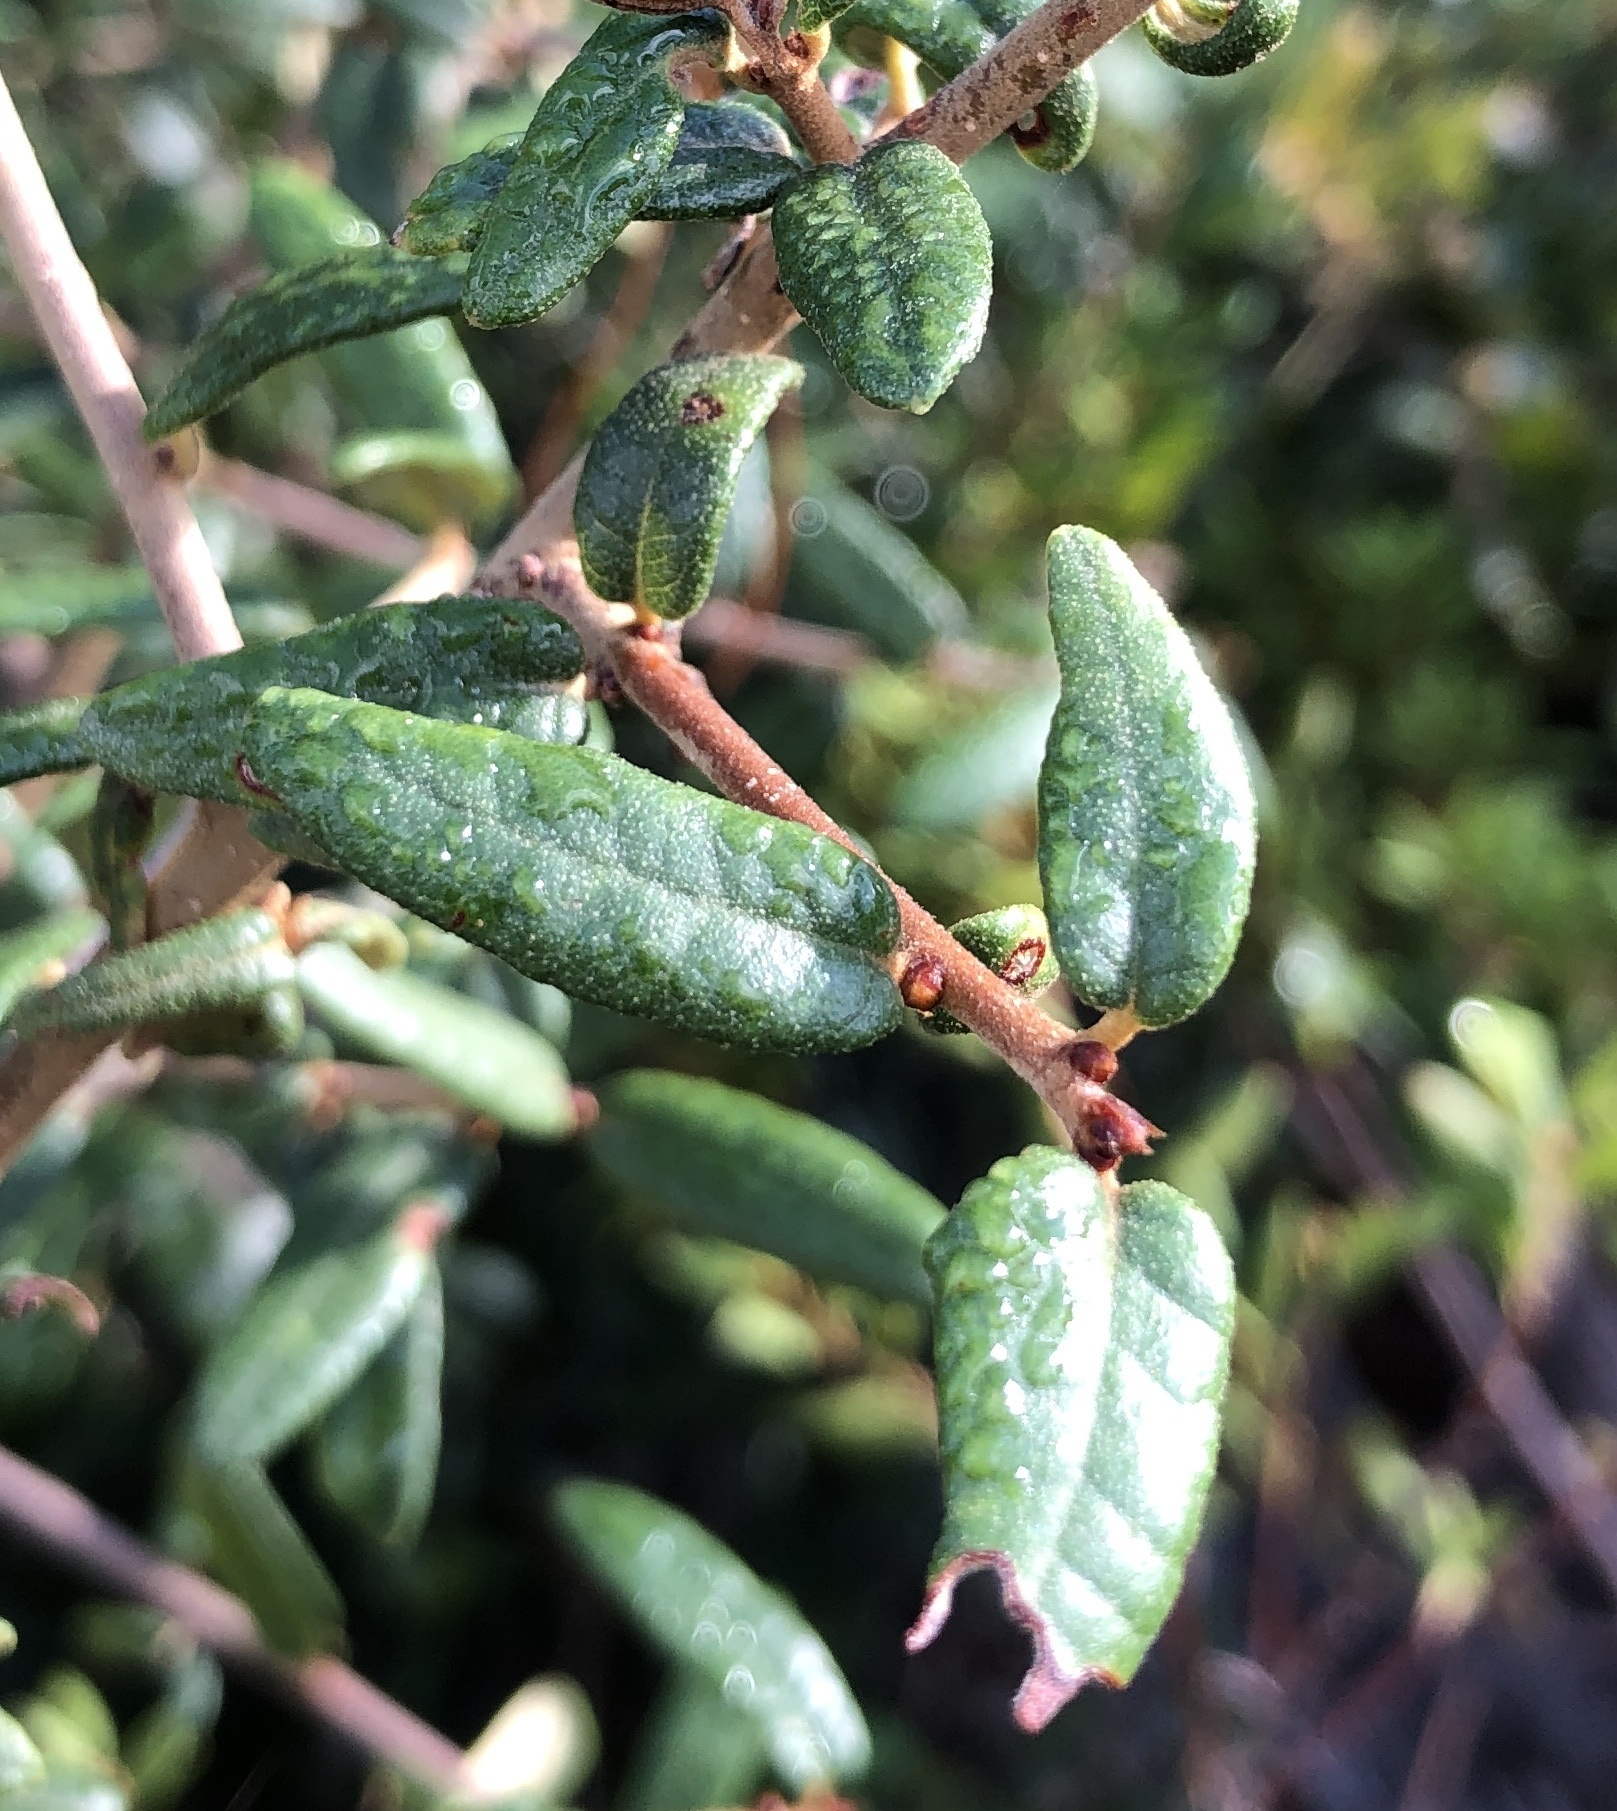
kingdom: Plantae
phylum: Tracheophyta
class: Magnoliopsida
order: Fagales
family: Fagaceae
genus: Quercus
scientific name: Quercus geminata
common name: Sand live oak
